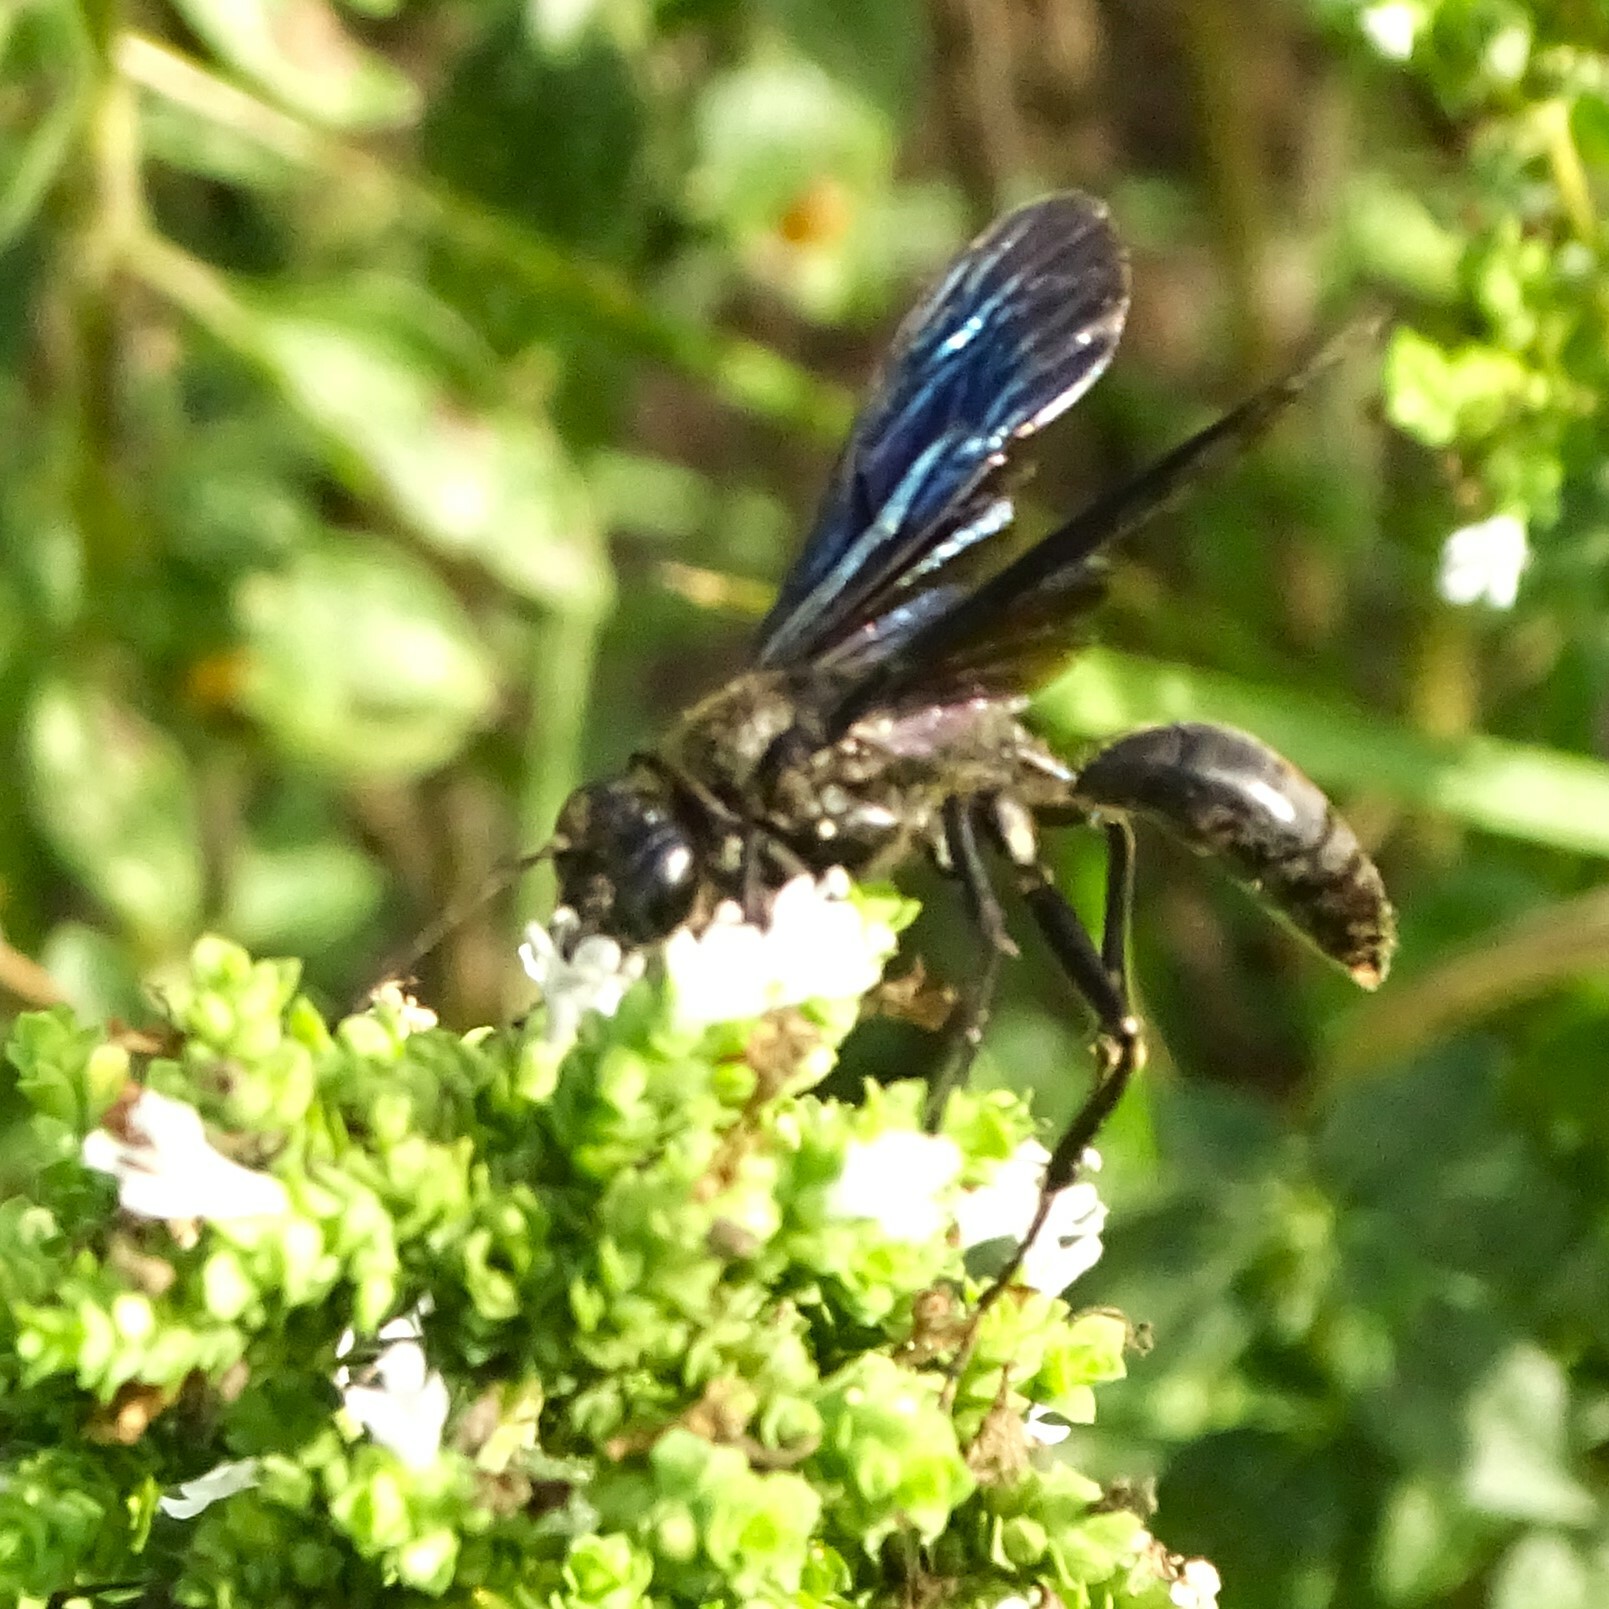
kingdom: Animalia
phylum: Arthropoda
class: Insecta
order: Hymenoptera
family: Sphecidae
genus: Sphex
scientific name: Sphex pensylvanicus
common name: Great black digger wasp
